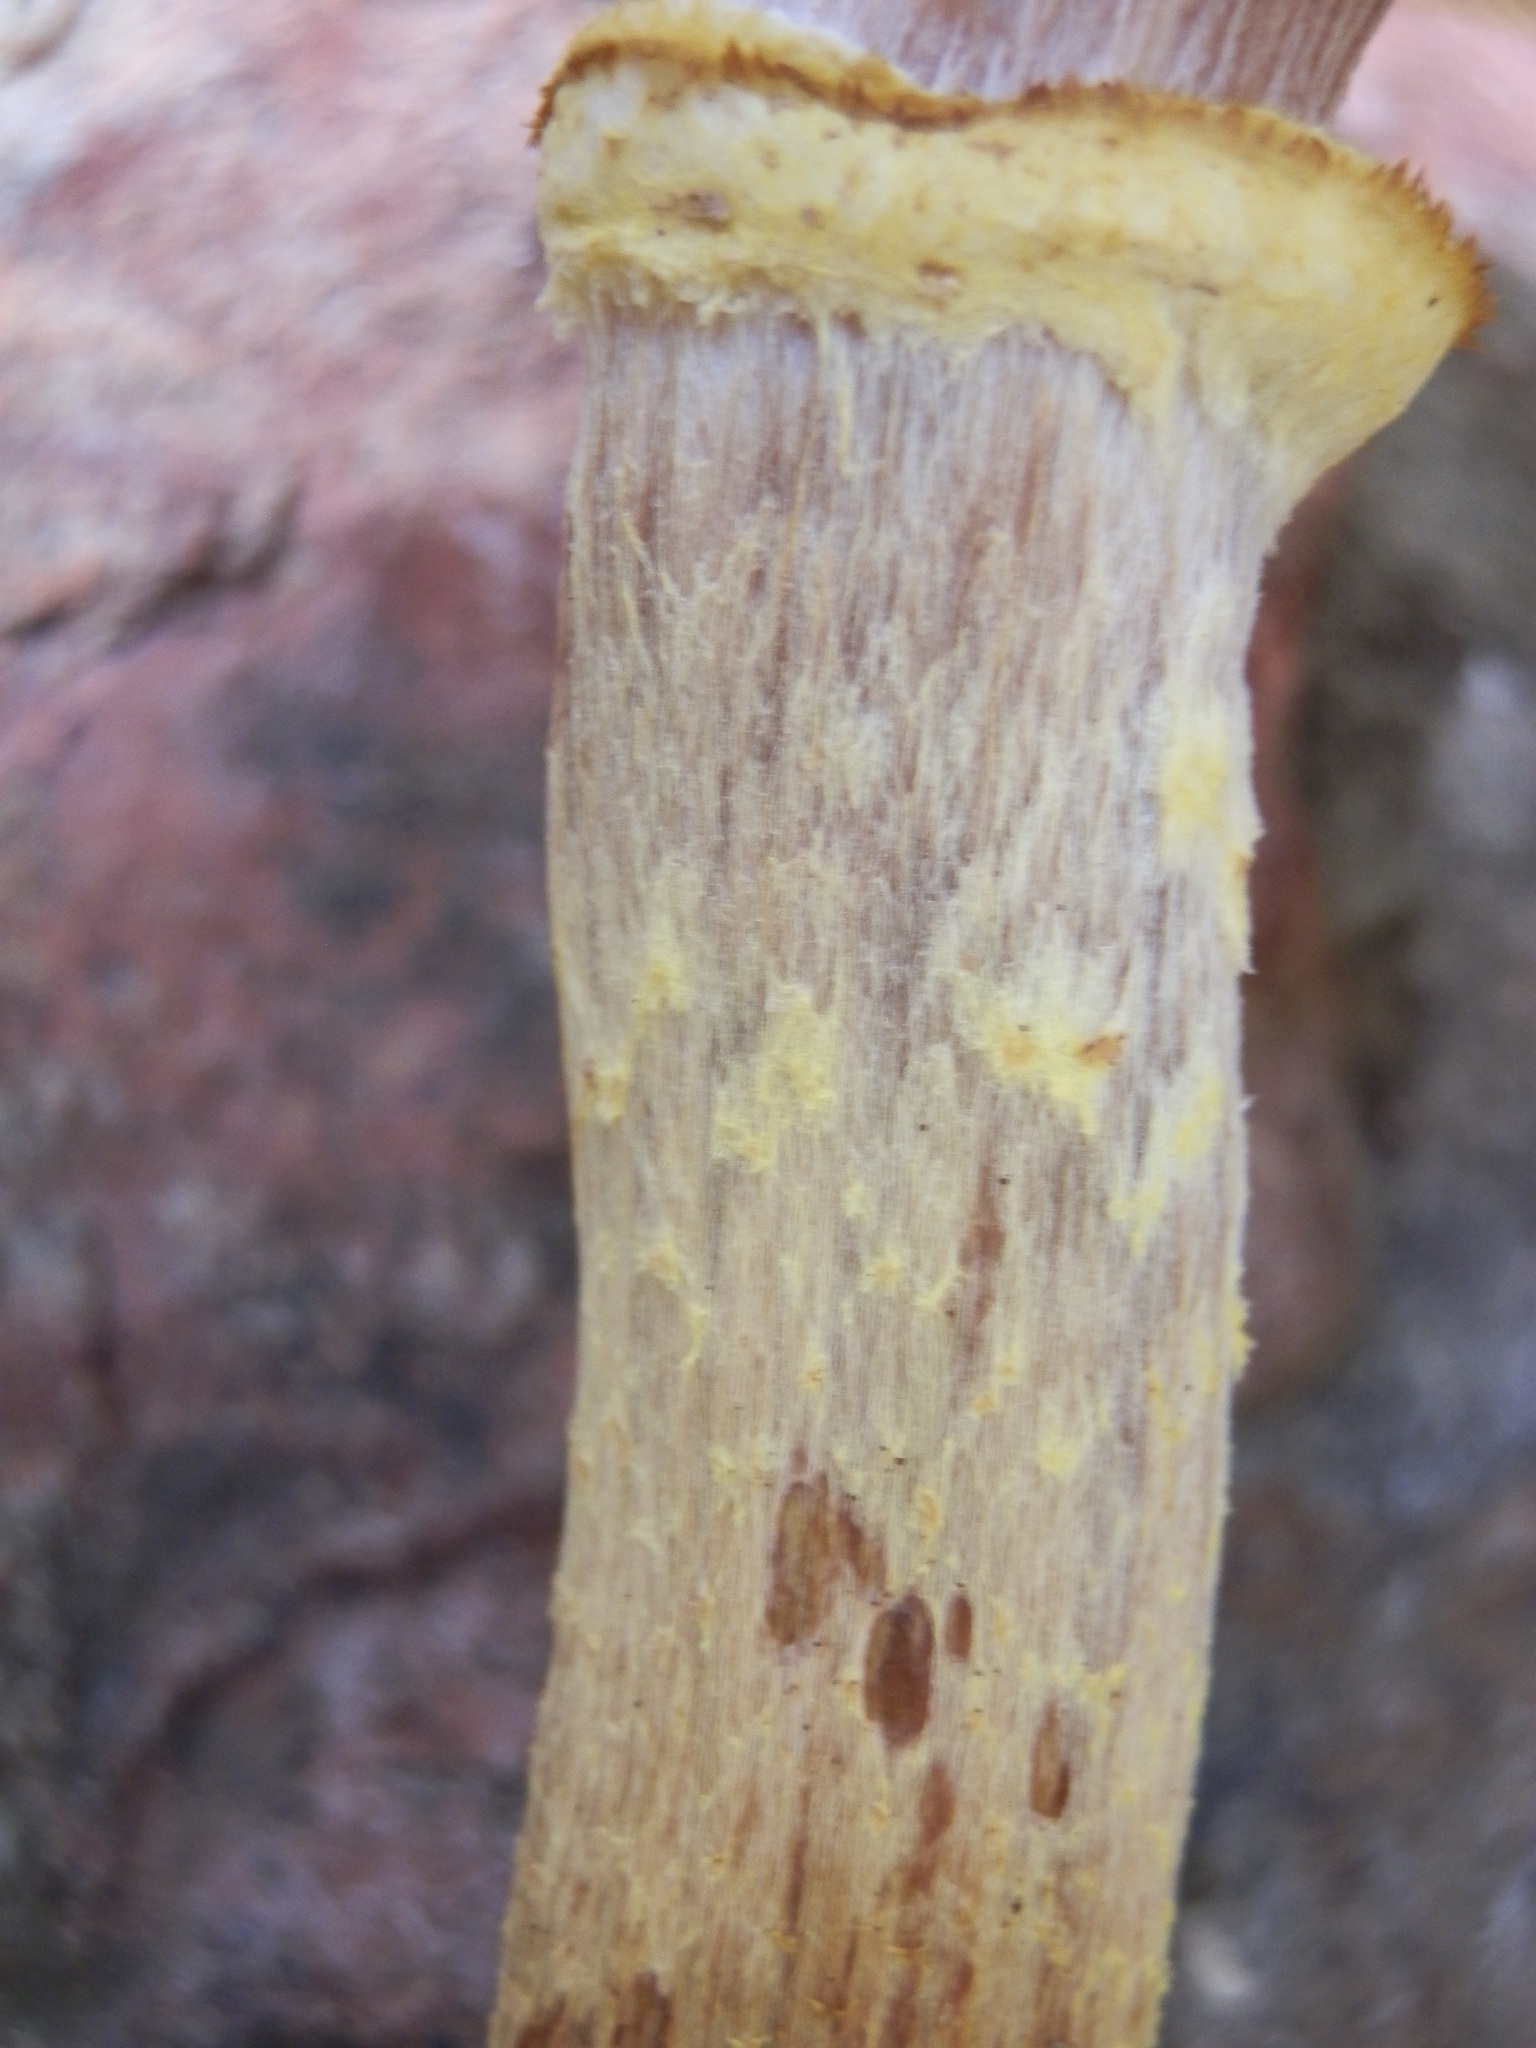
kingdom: Fungi
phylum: Basidiomycota
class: Agaricomycetes
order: Agaricales
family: Physalacriaceae
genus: Armillaria
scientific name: Armillaria sinapina
